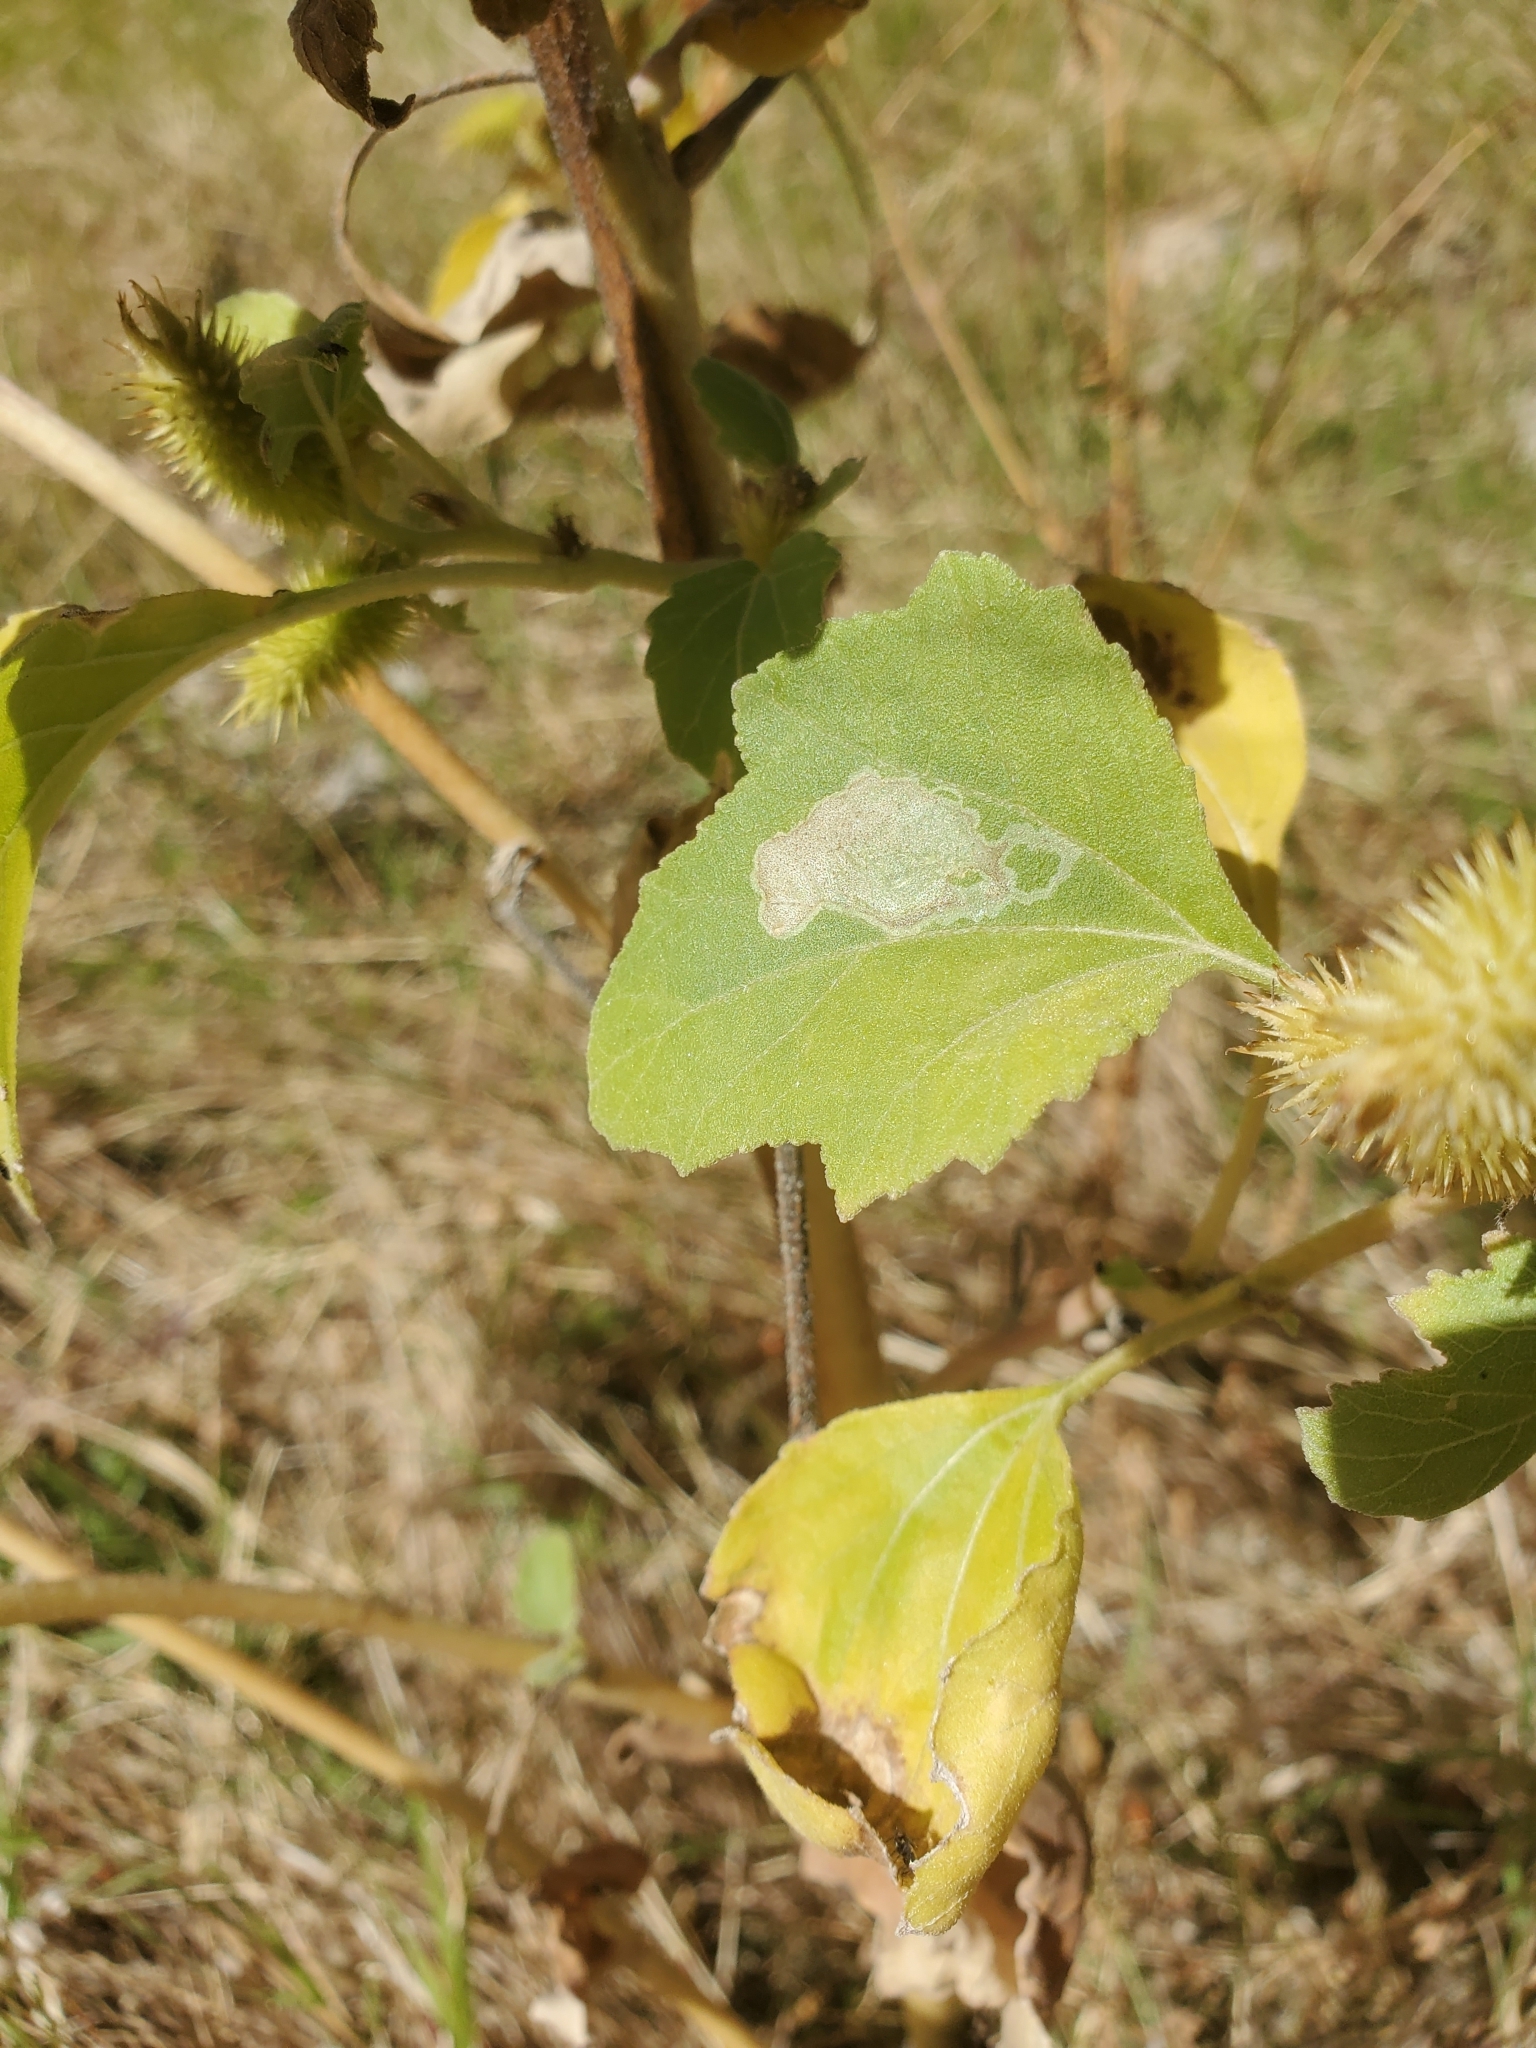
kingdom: Plantae
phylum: Tracheophyta
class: Magnoliopsida
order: Asterales
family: Asteraceae
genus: Xanthium
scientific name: Xanthium strumarium
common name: Rough cocklebur
